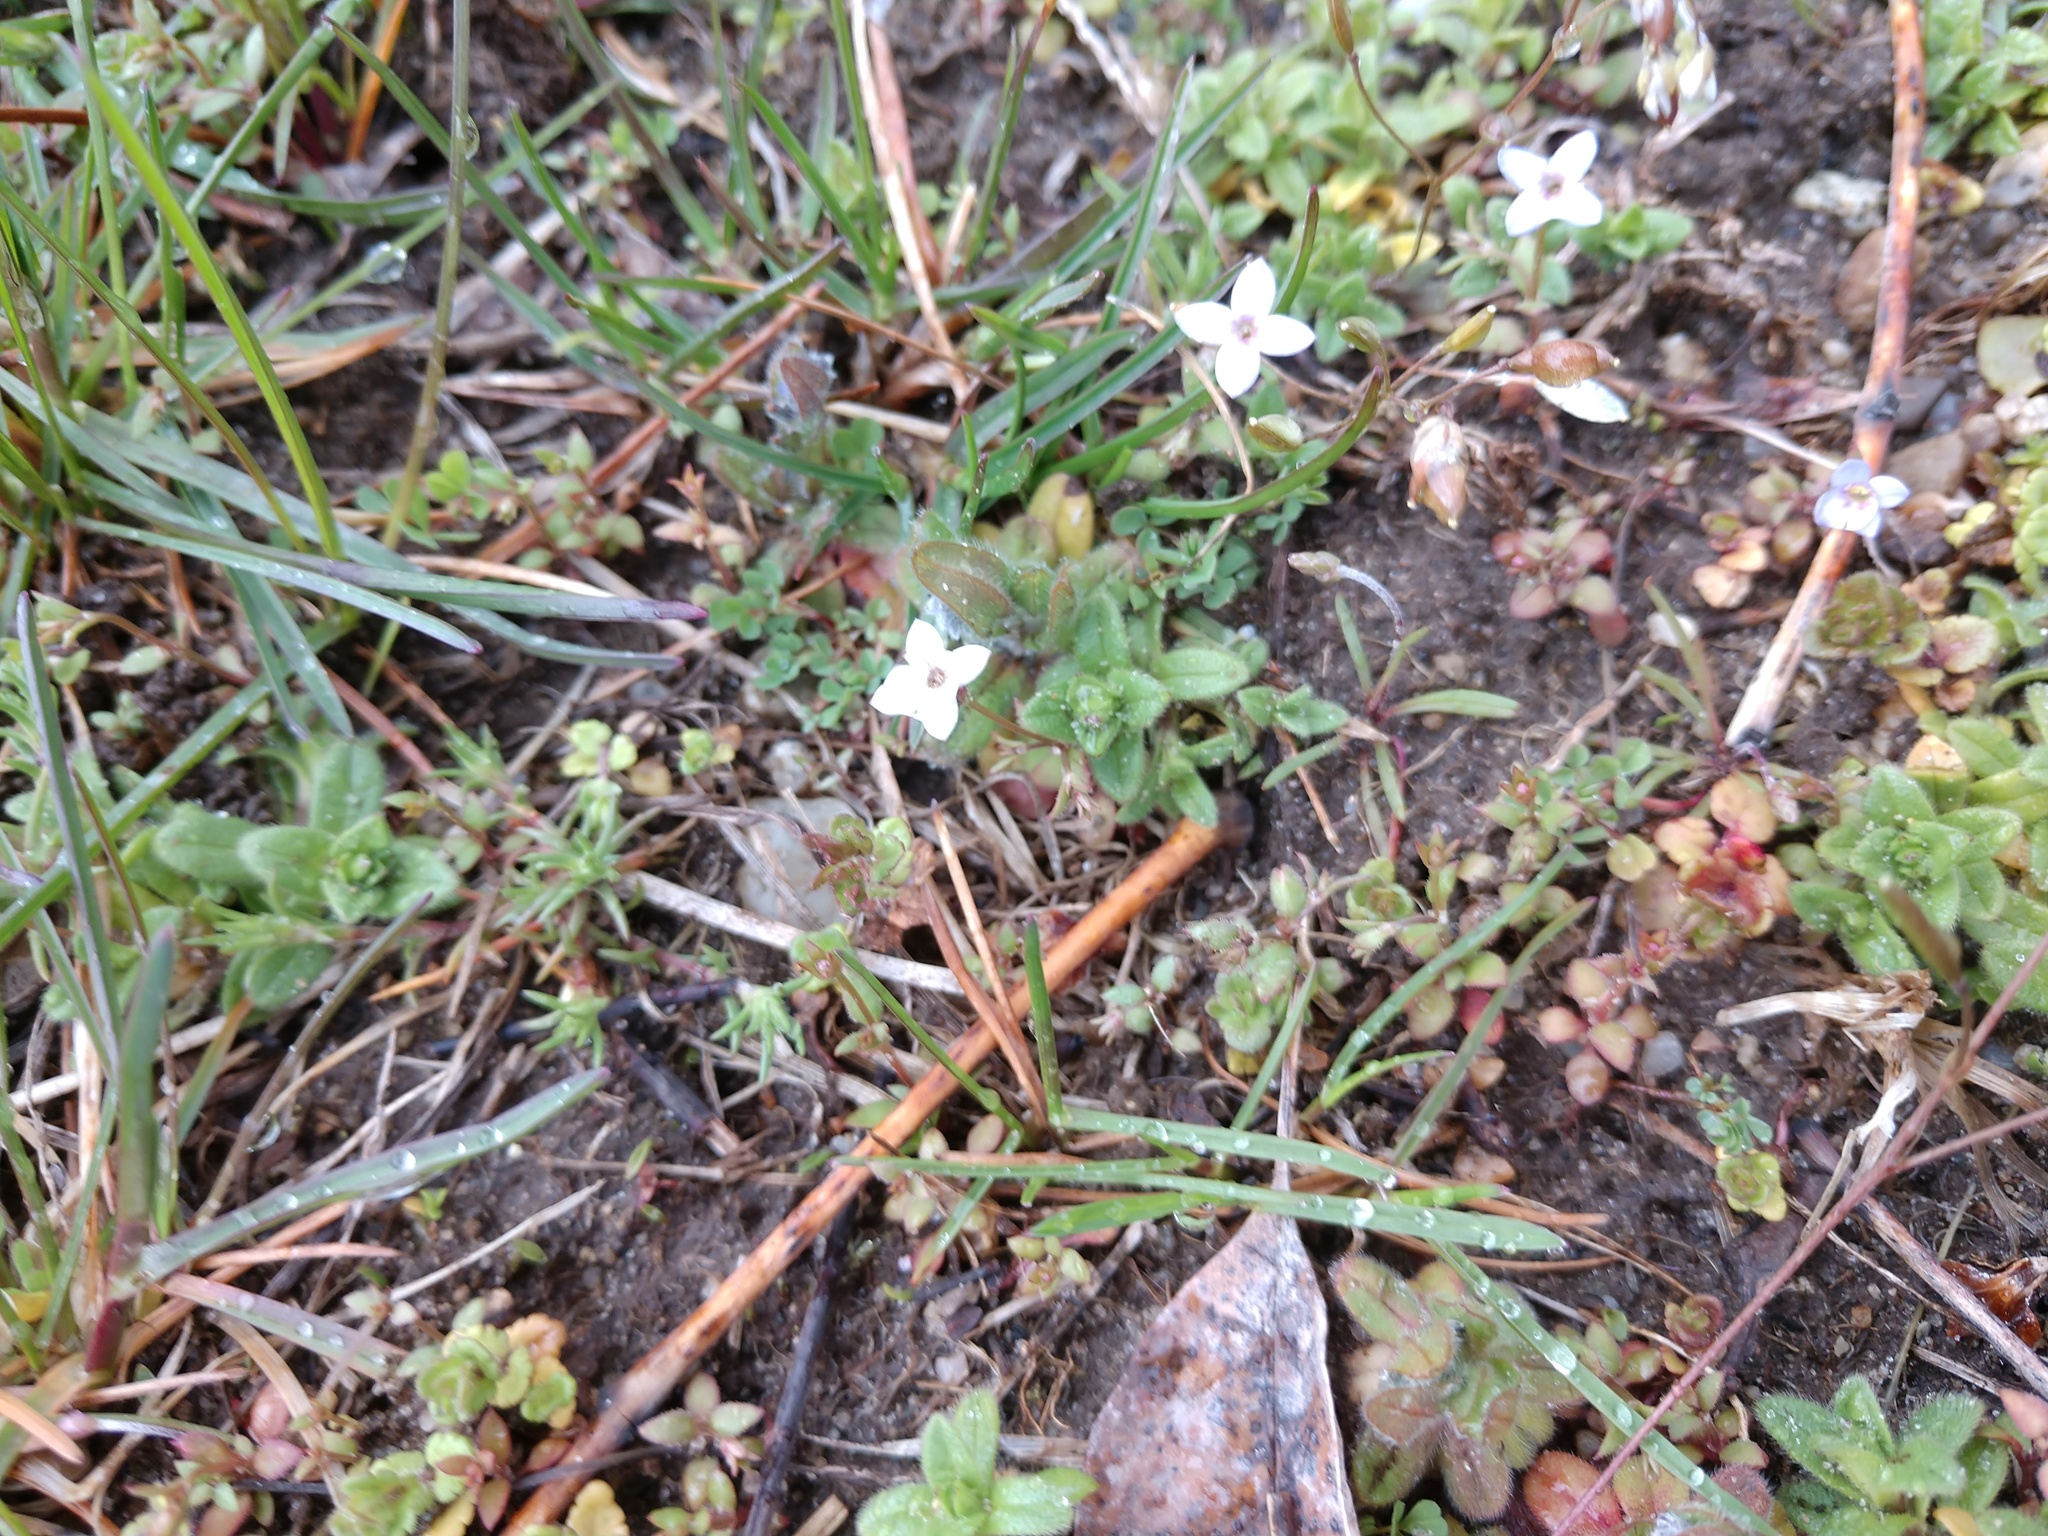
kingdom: Plantae
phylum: Tracheophyta
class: Magnoliopsida
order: Gentianales
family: Rubiaceae
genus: Houstonia
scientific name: Houstonia pusilla
